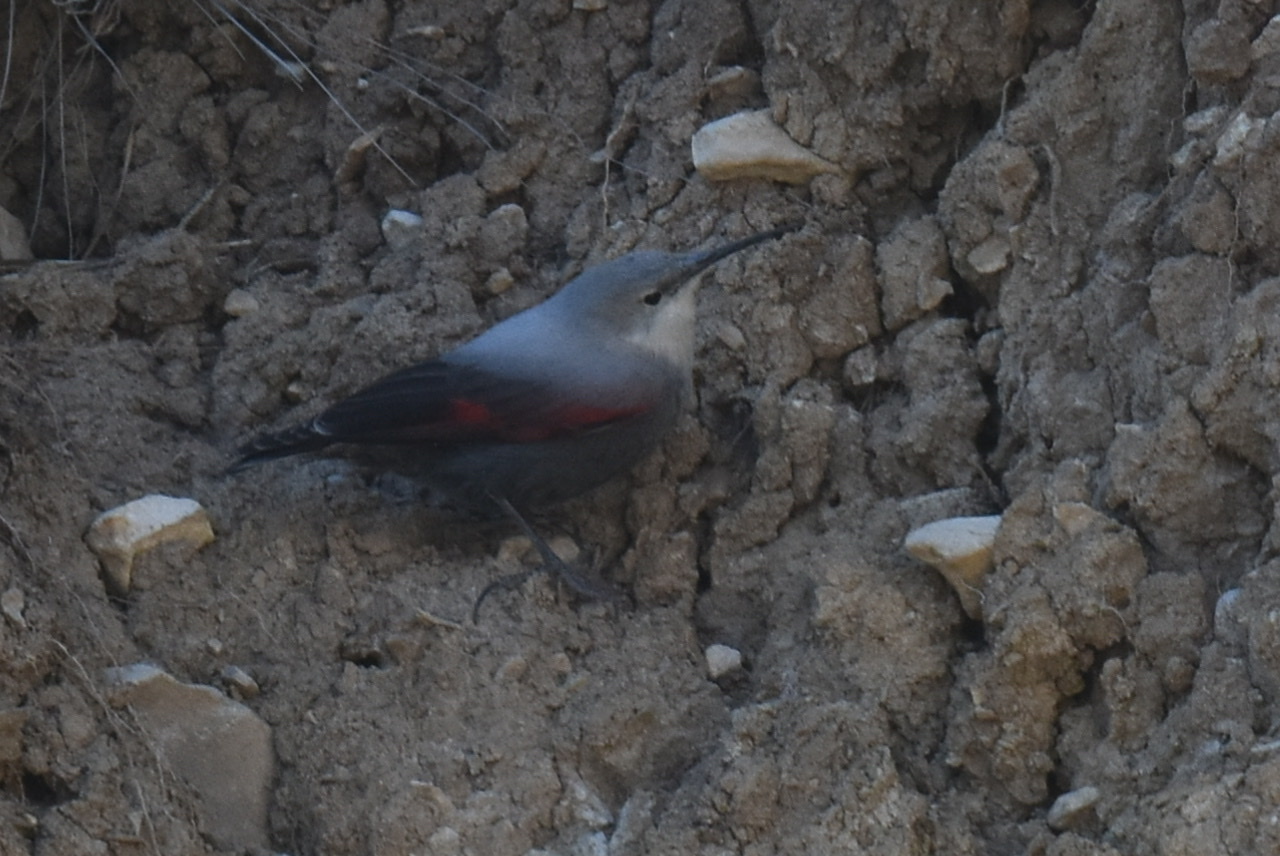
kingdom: Animalia
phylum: Chordata
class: Aves
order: Passeriformes
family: Tichodromidae
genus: Tichodroma
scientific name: Tichodroma muraria
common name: Wallcreeper
